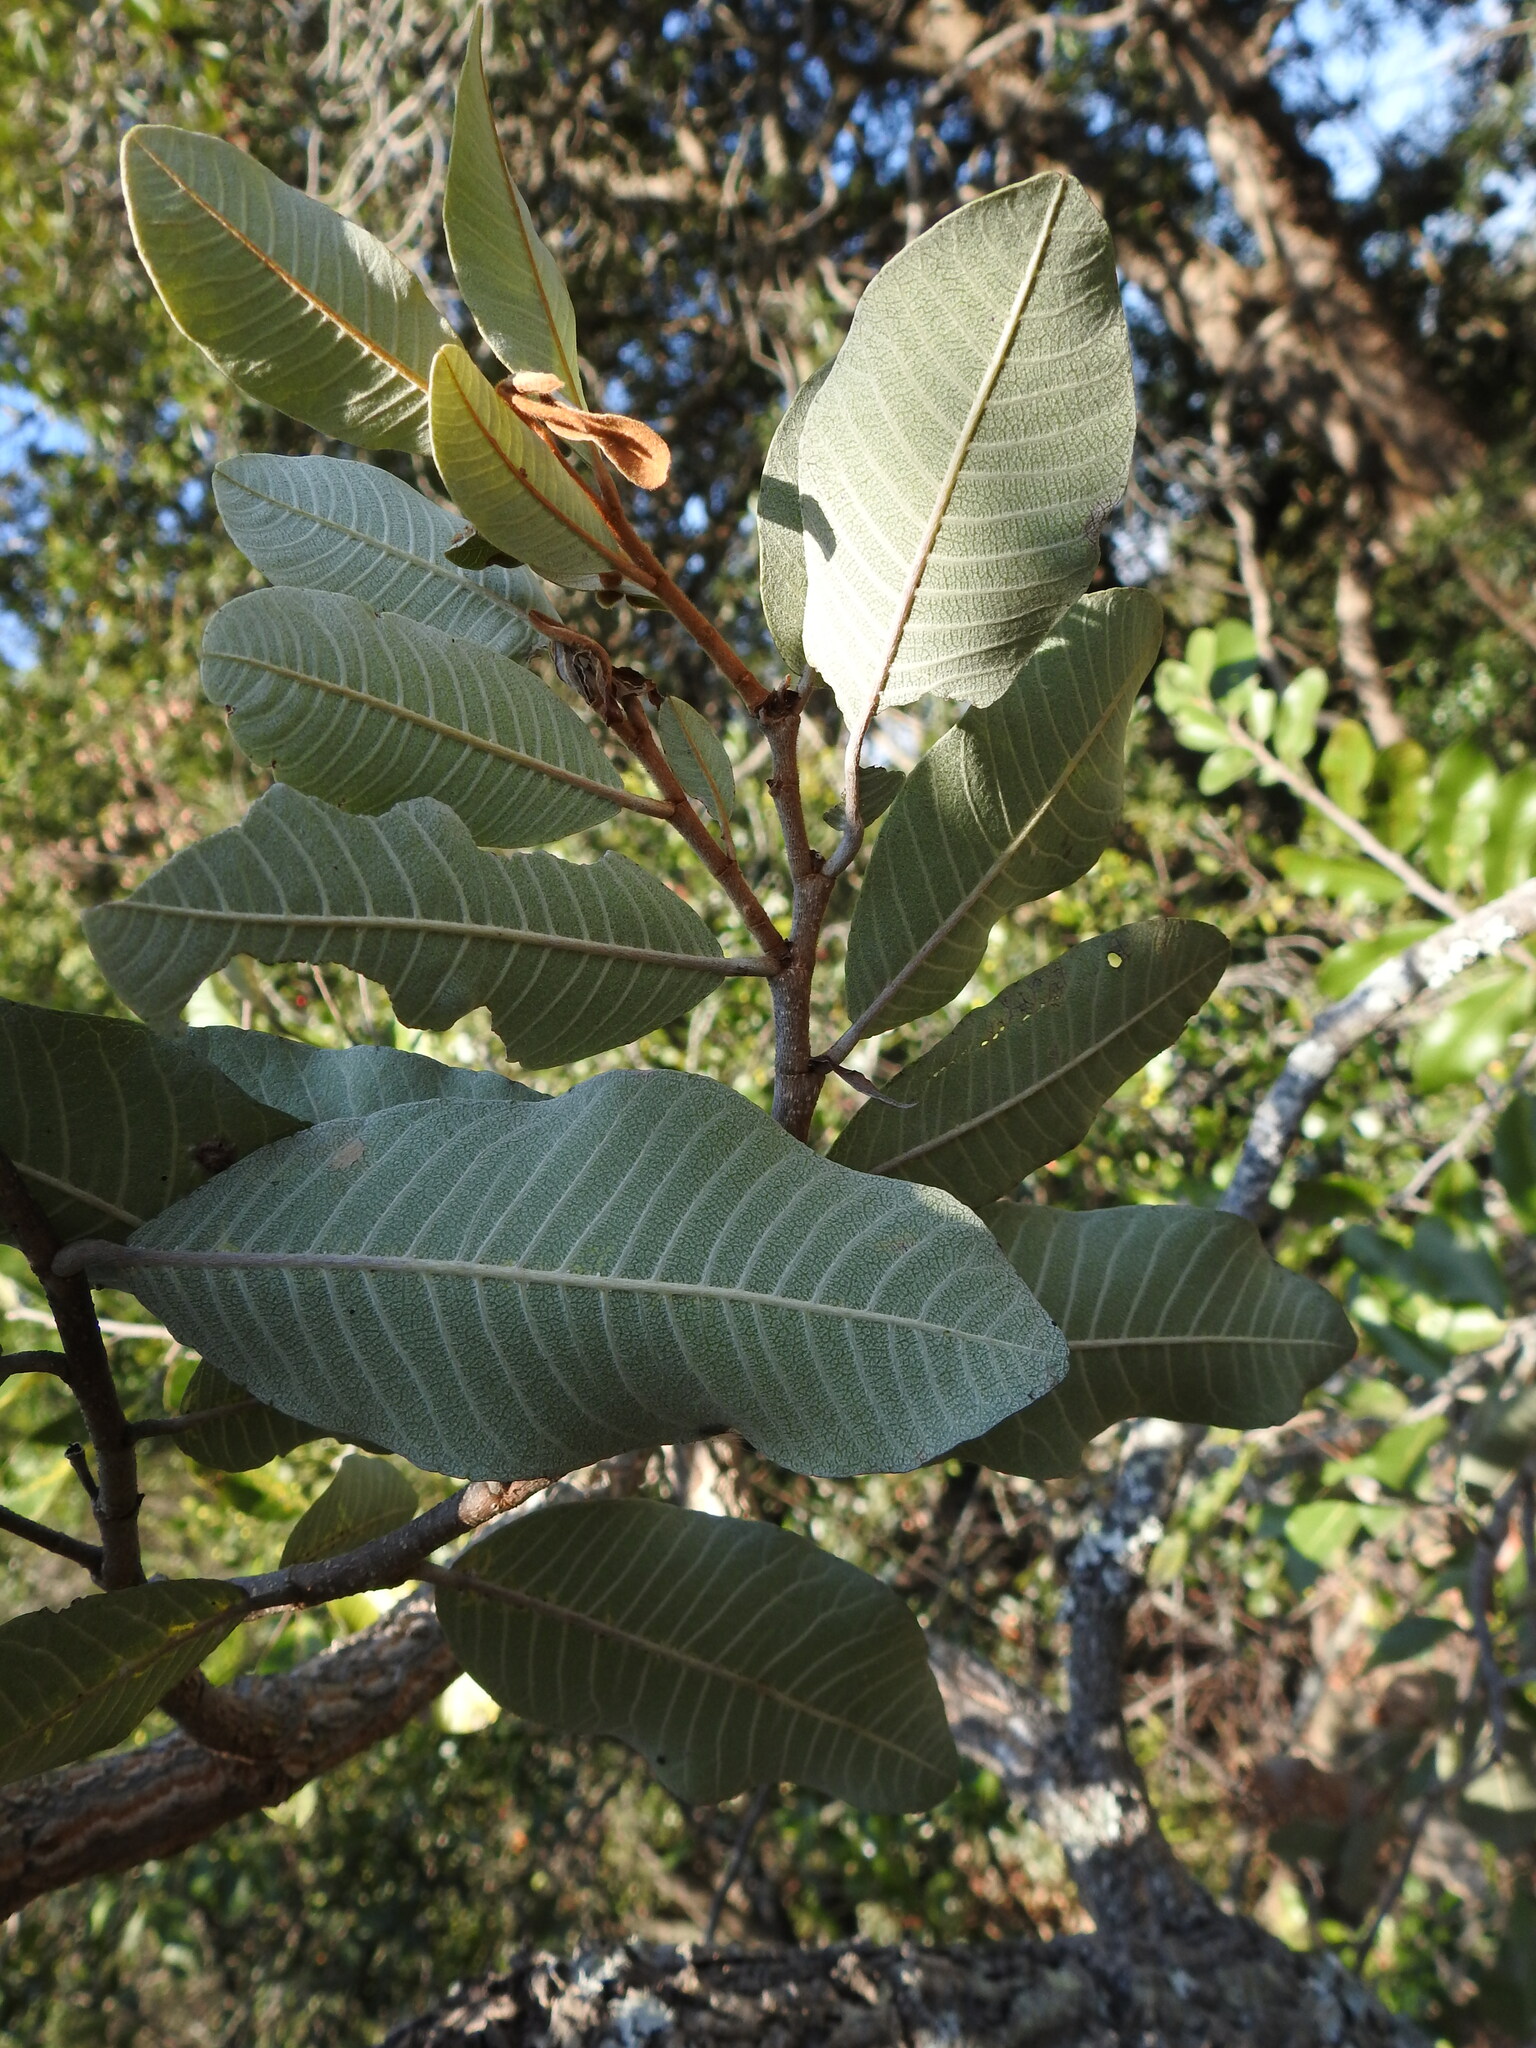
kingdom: Plantae
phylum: Tracheophyta
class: Magnoliopsida
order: Malpighiales
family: Chrysobalanaceae
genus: Parinari
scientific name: Parinari curatellifolia
